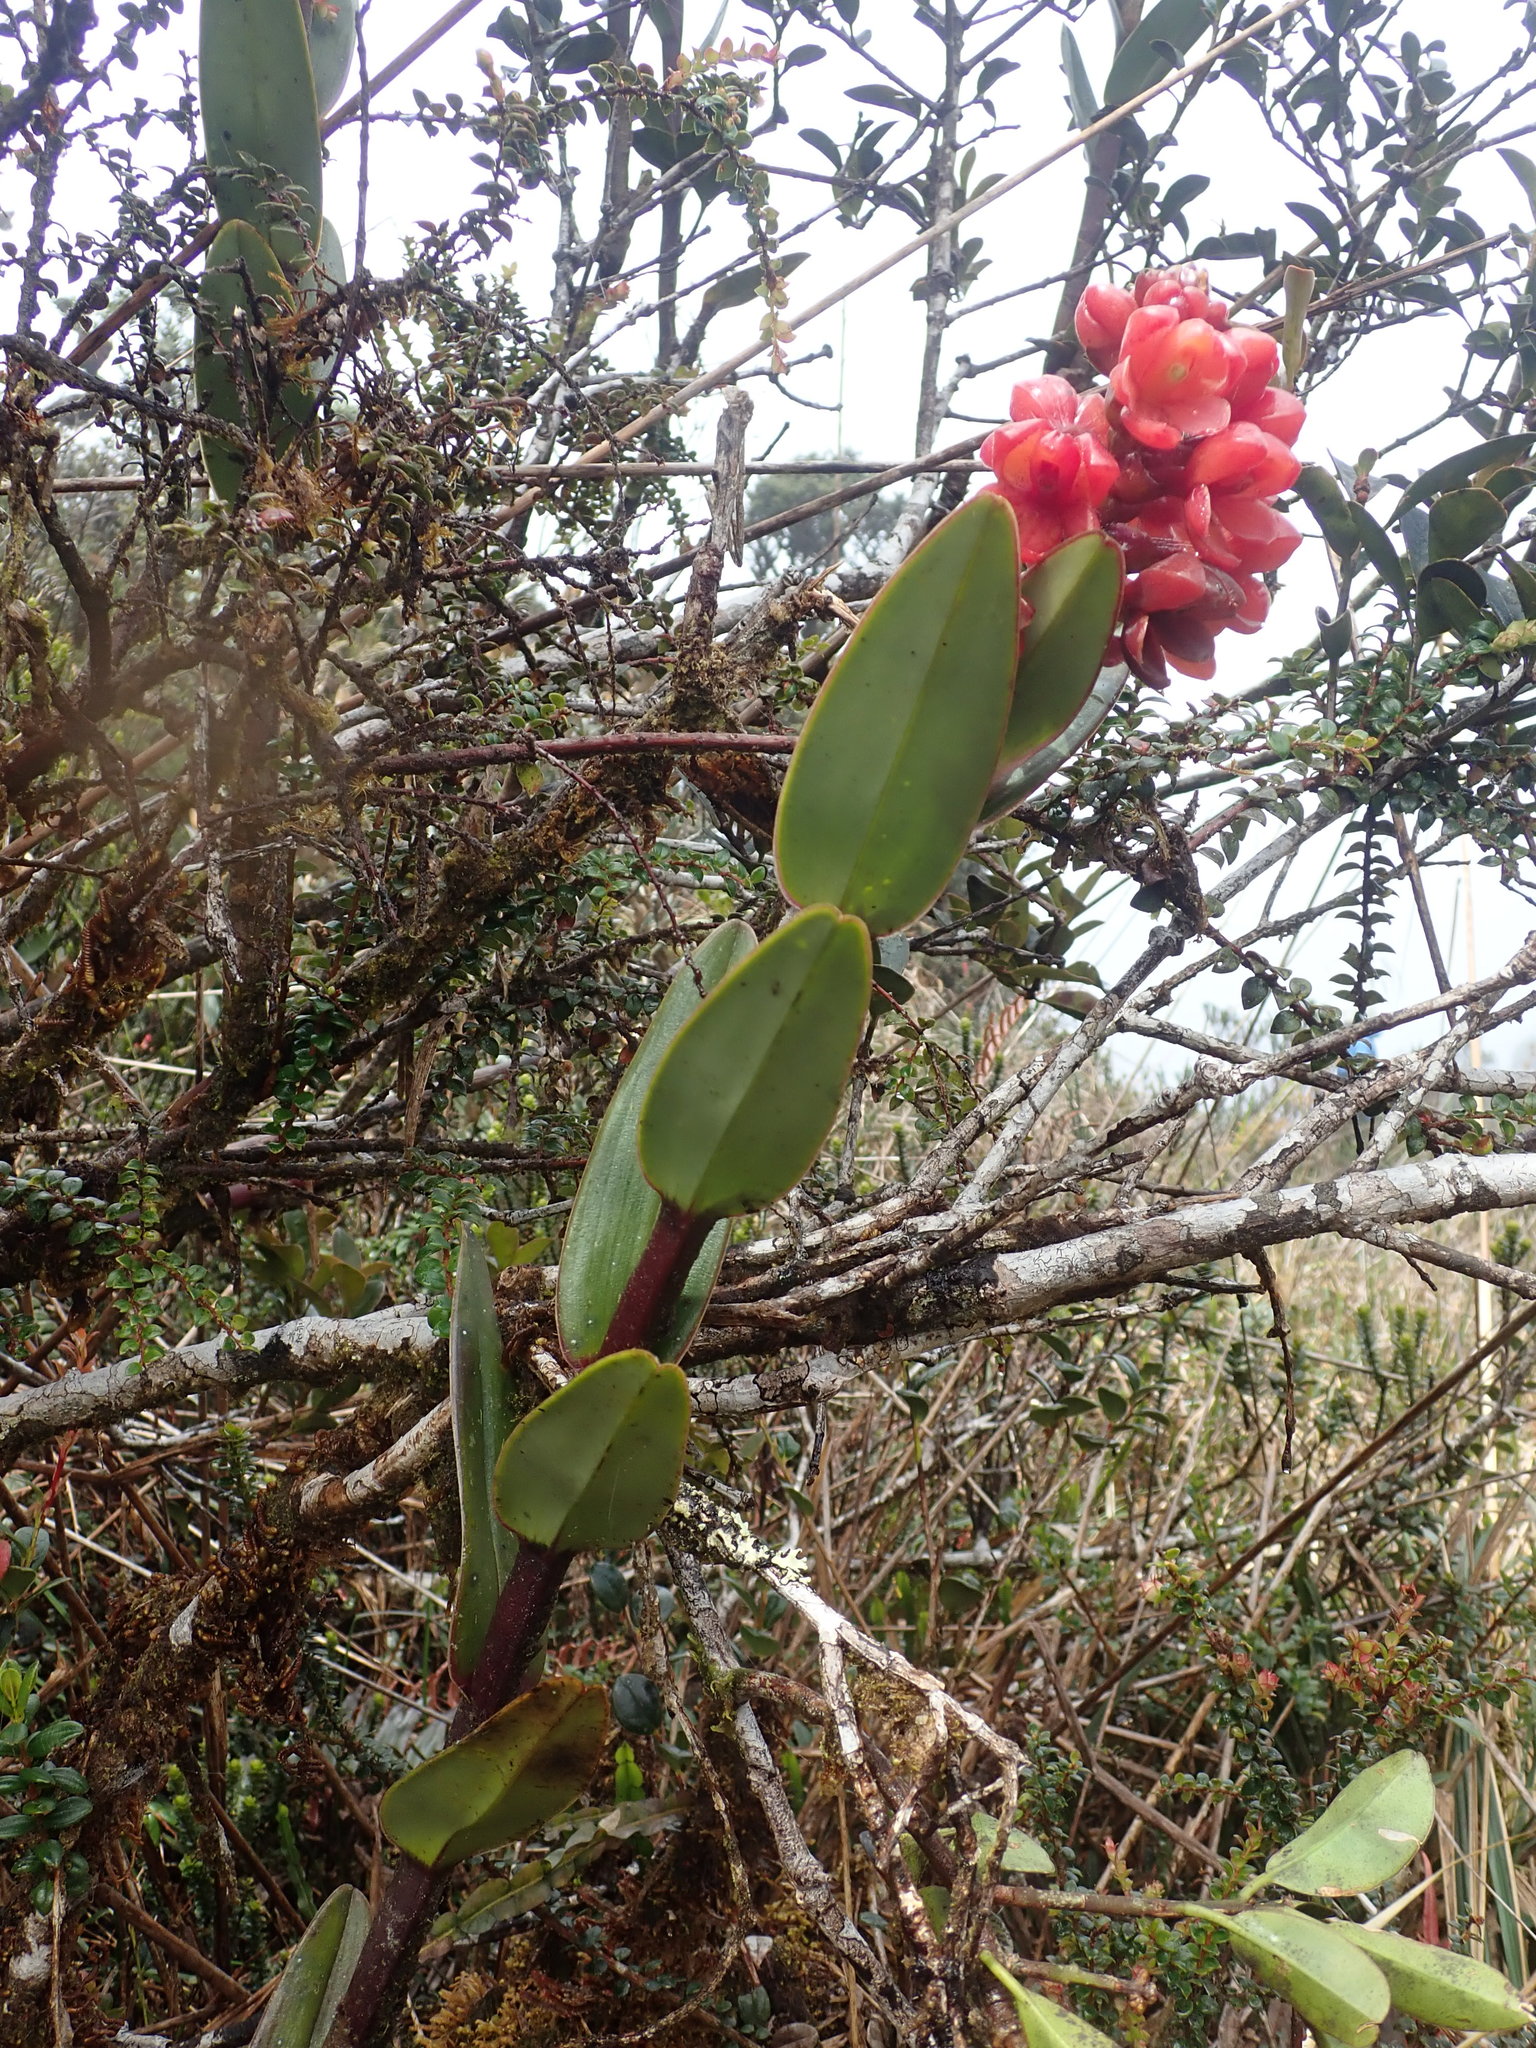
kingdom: Plantae
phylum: Tracheophyta
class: Liliopsida
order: Asparagales
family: Orchidaceae
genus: Epidendrum
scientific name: Epidendrum ariasii
